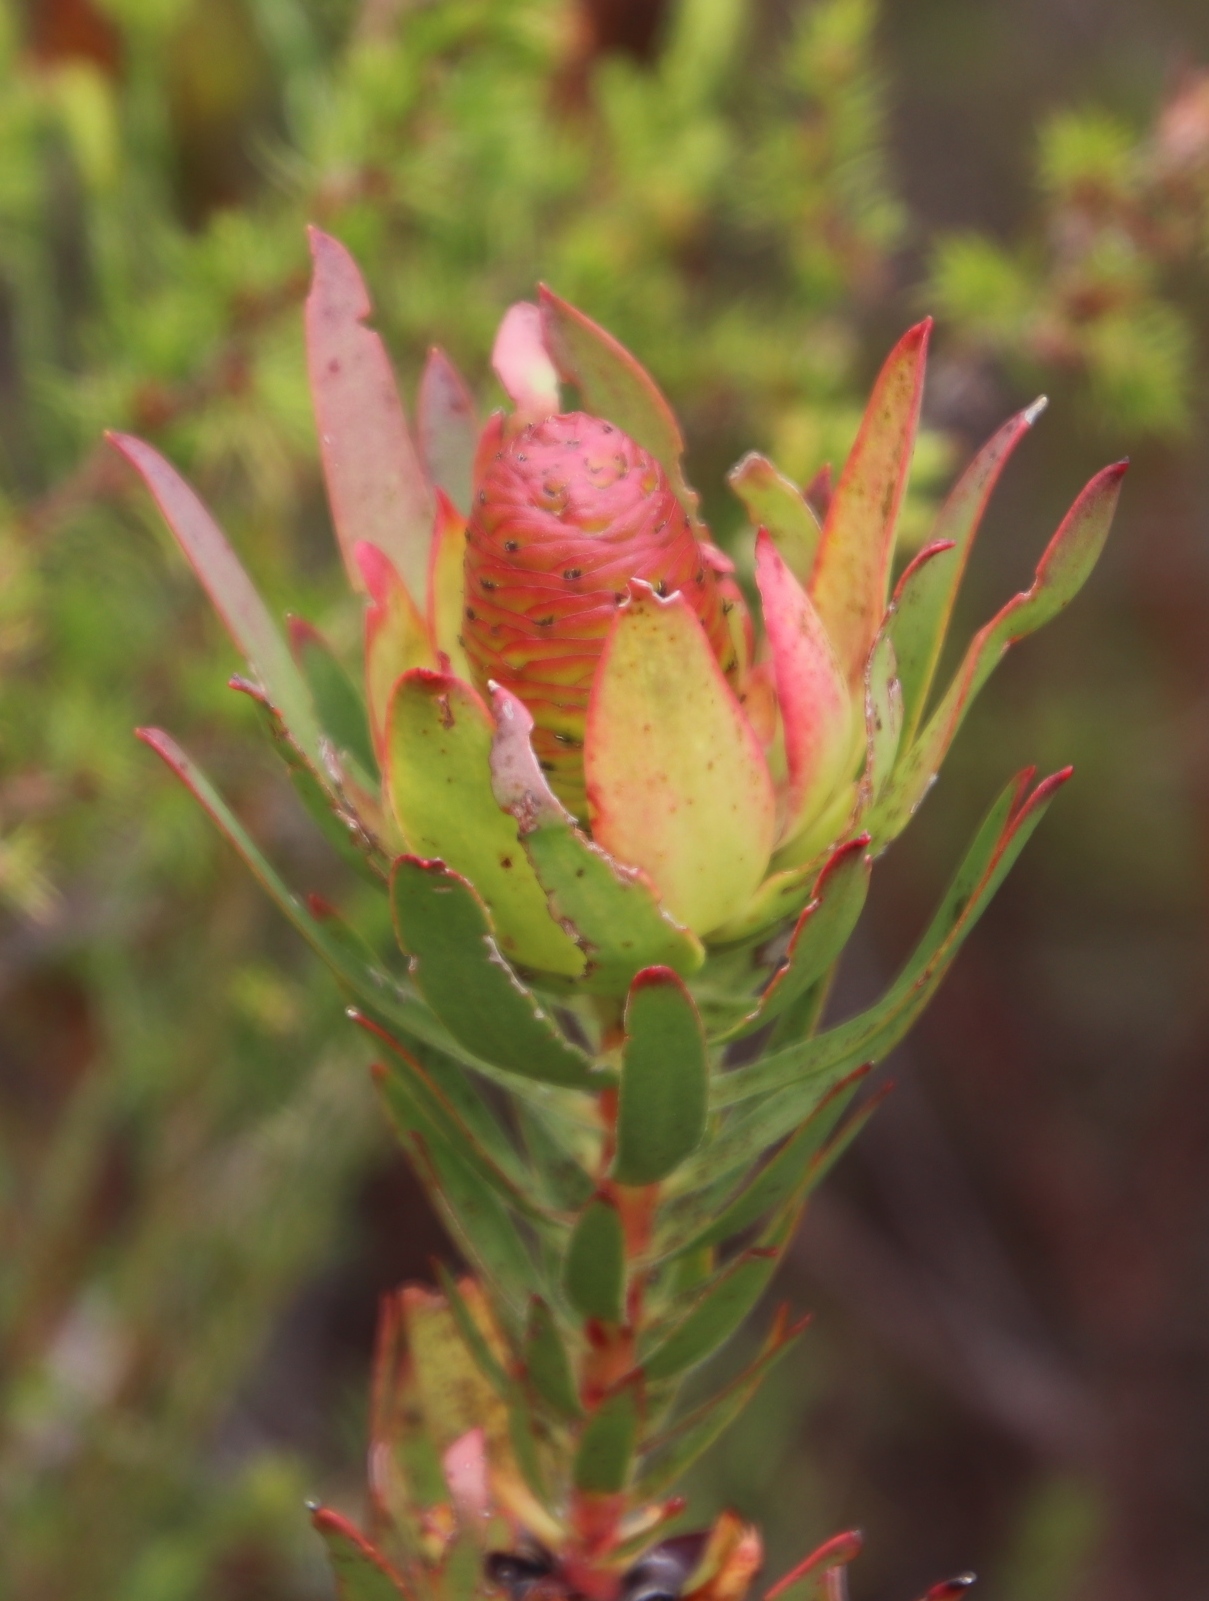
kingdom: Plantae
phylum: Tracheophyta
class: Magnoliopsida
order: Proteales
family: Proteaceae
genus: Leucadendron
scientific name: Leucadendron spissifolium
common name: Spear-leaf conebush
